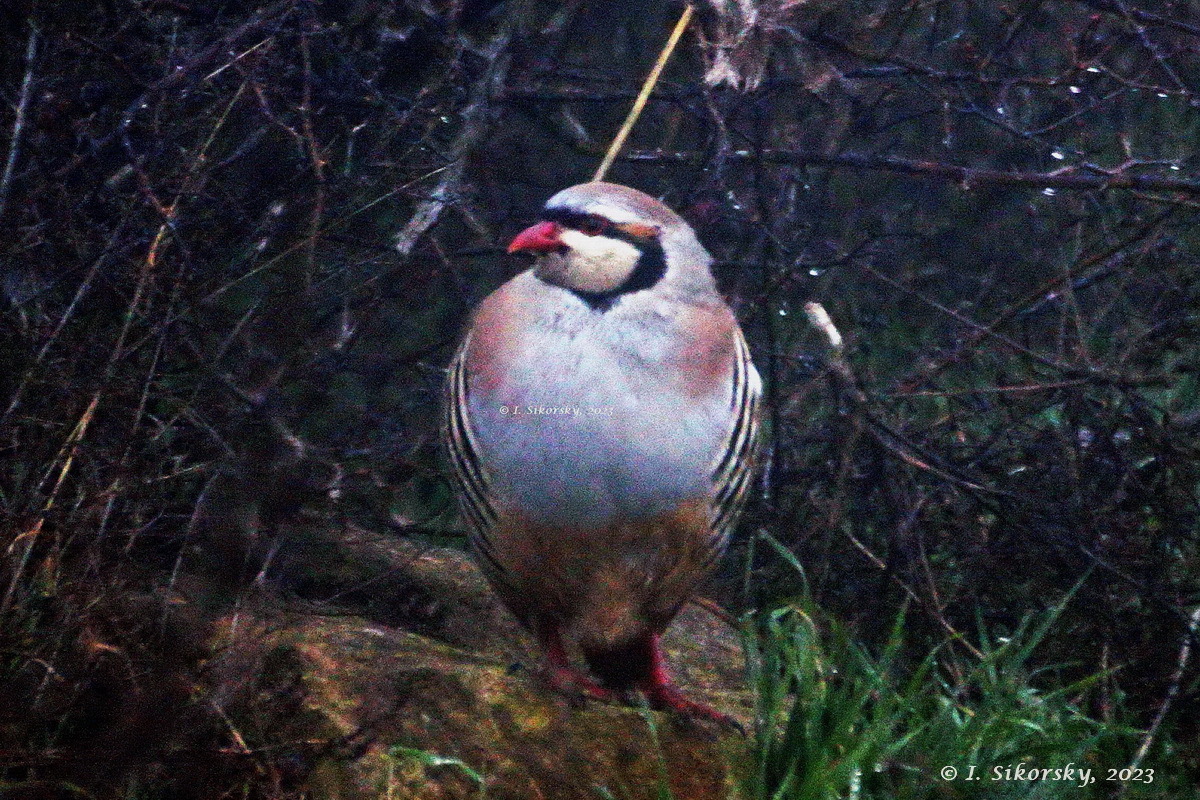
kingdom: Animalia
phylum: Chordata
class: Aves
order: Galliformes
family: Phasianidae
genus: Alectoris
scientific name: Alectoris chukar
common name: Chukar
